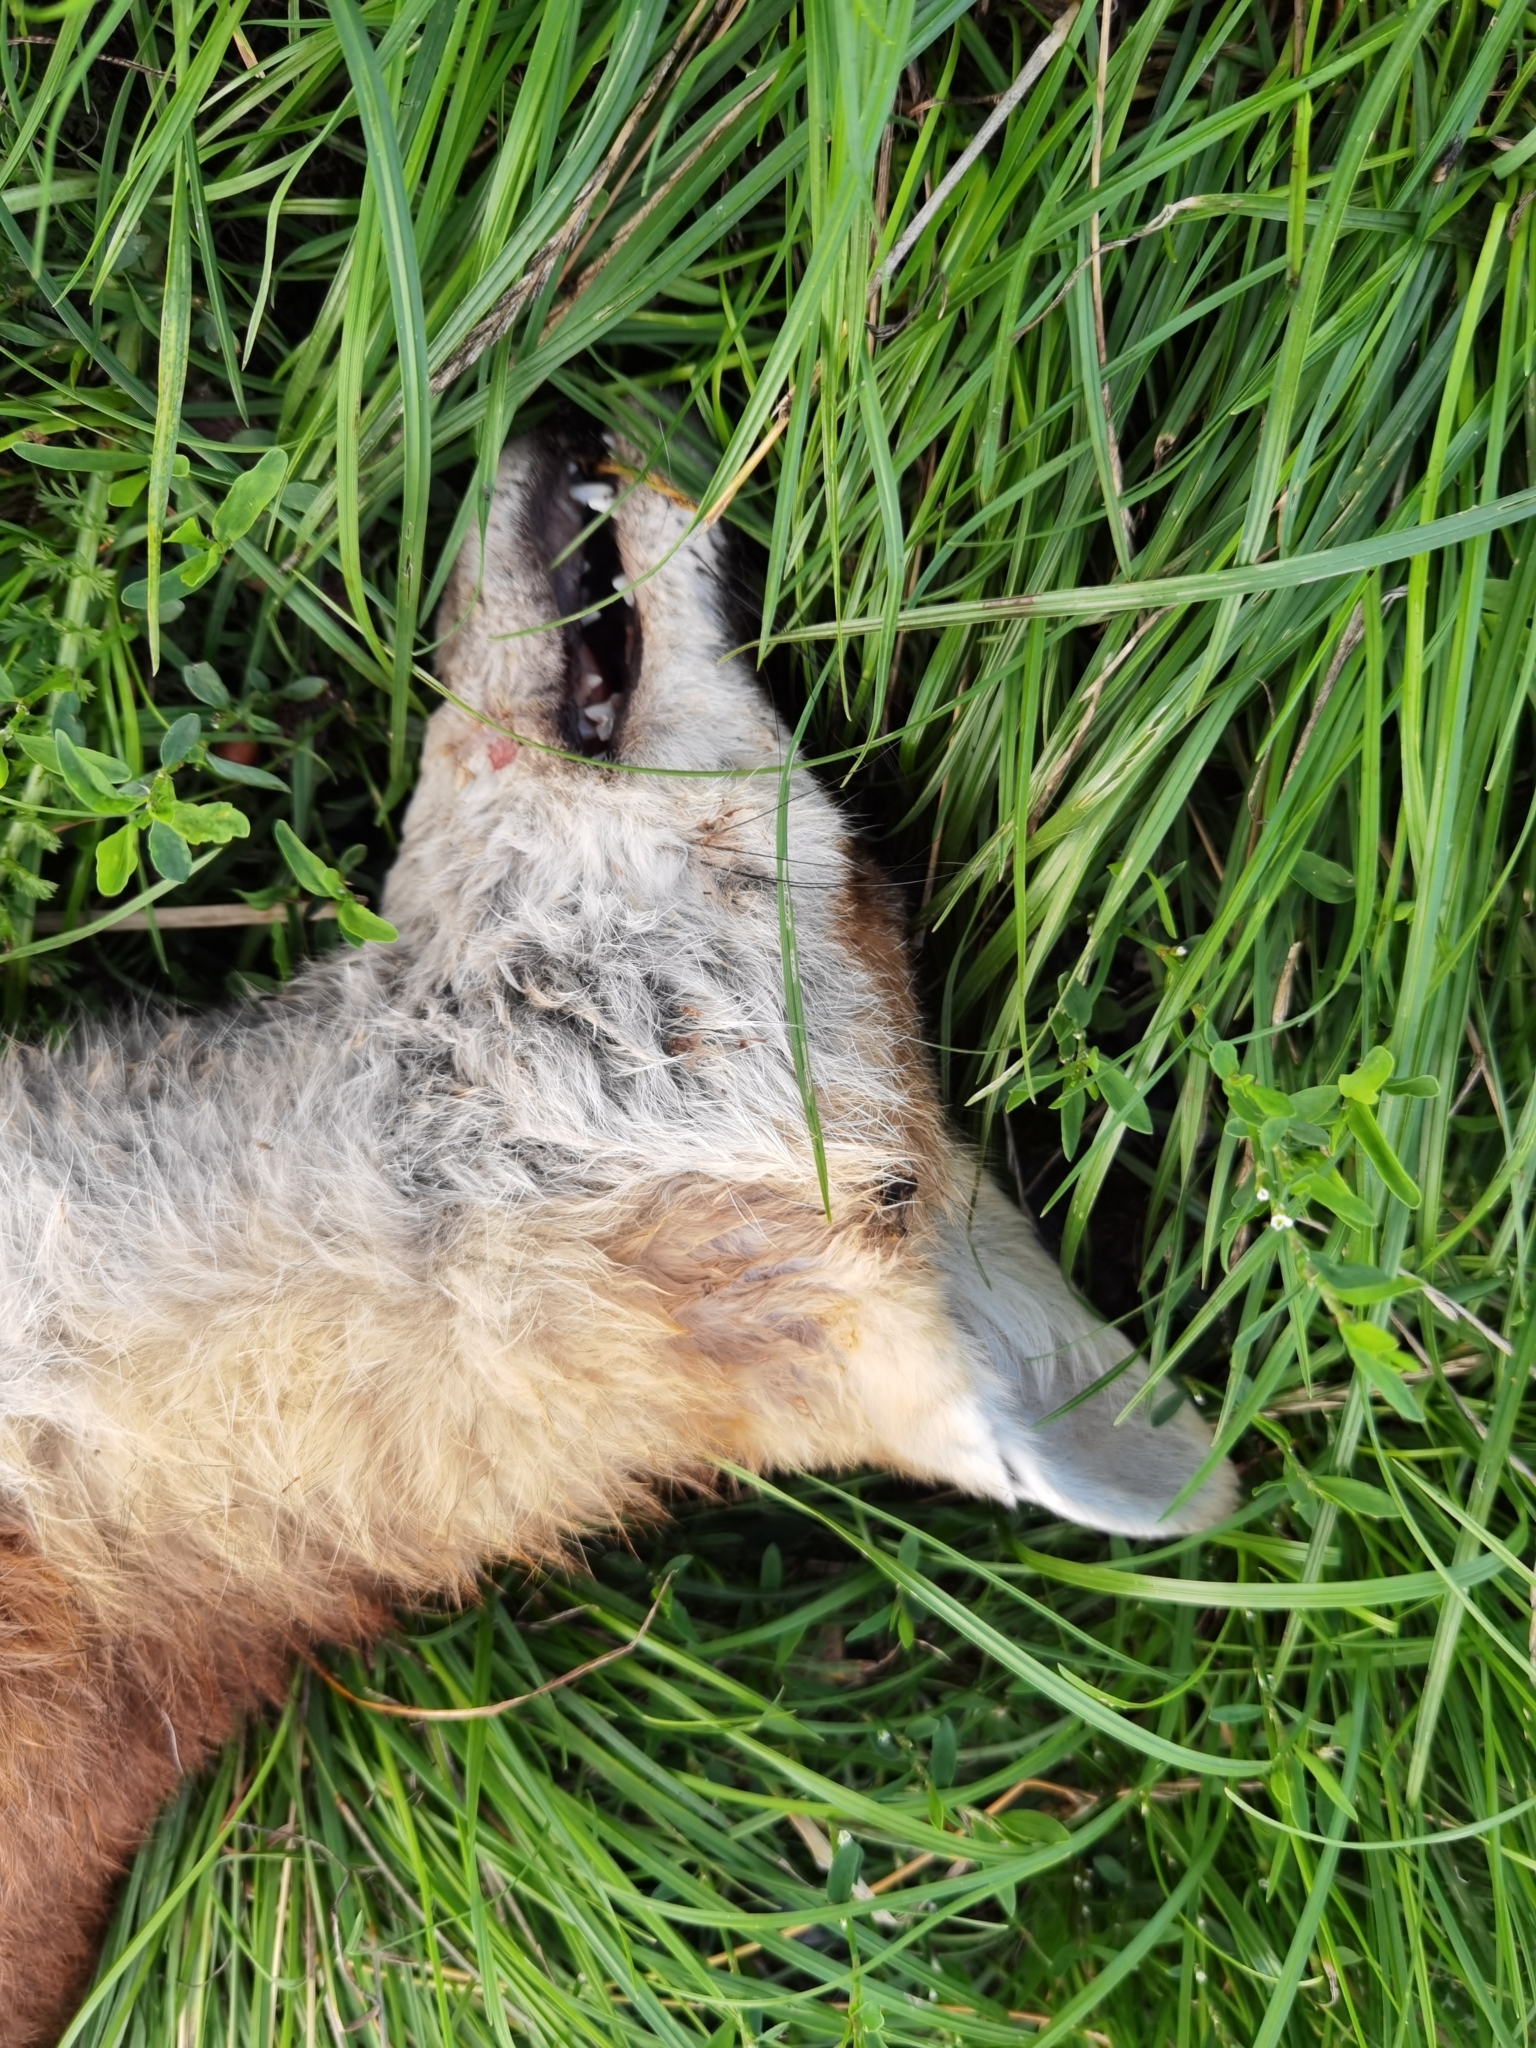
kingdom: Animalia
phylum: Chordata
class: Mammalia
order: Carnivora
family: Canidae
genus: Vulpes
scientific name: Vulpes vulpes
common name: Red fox
